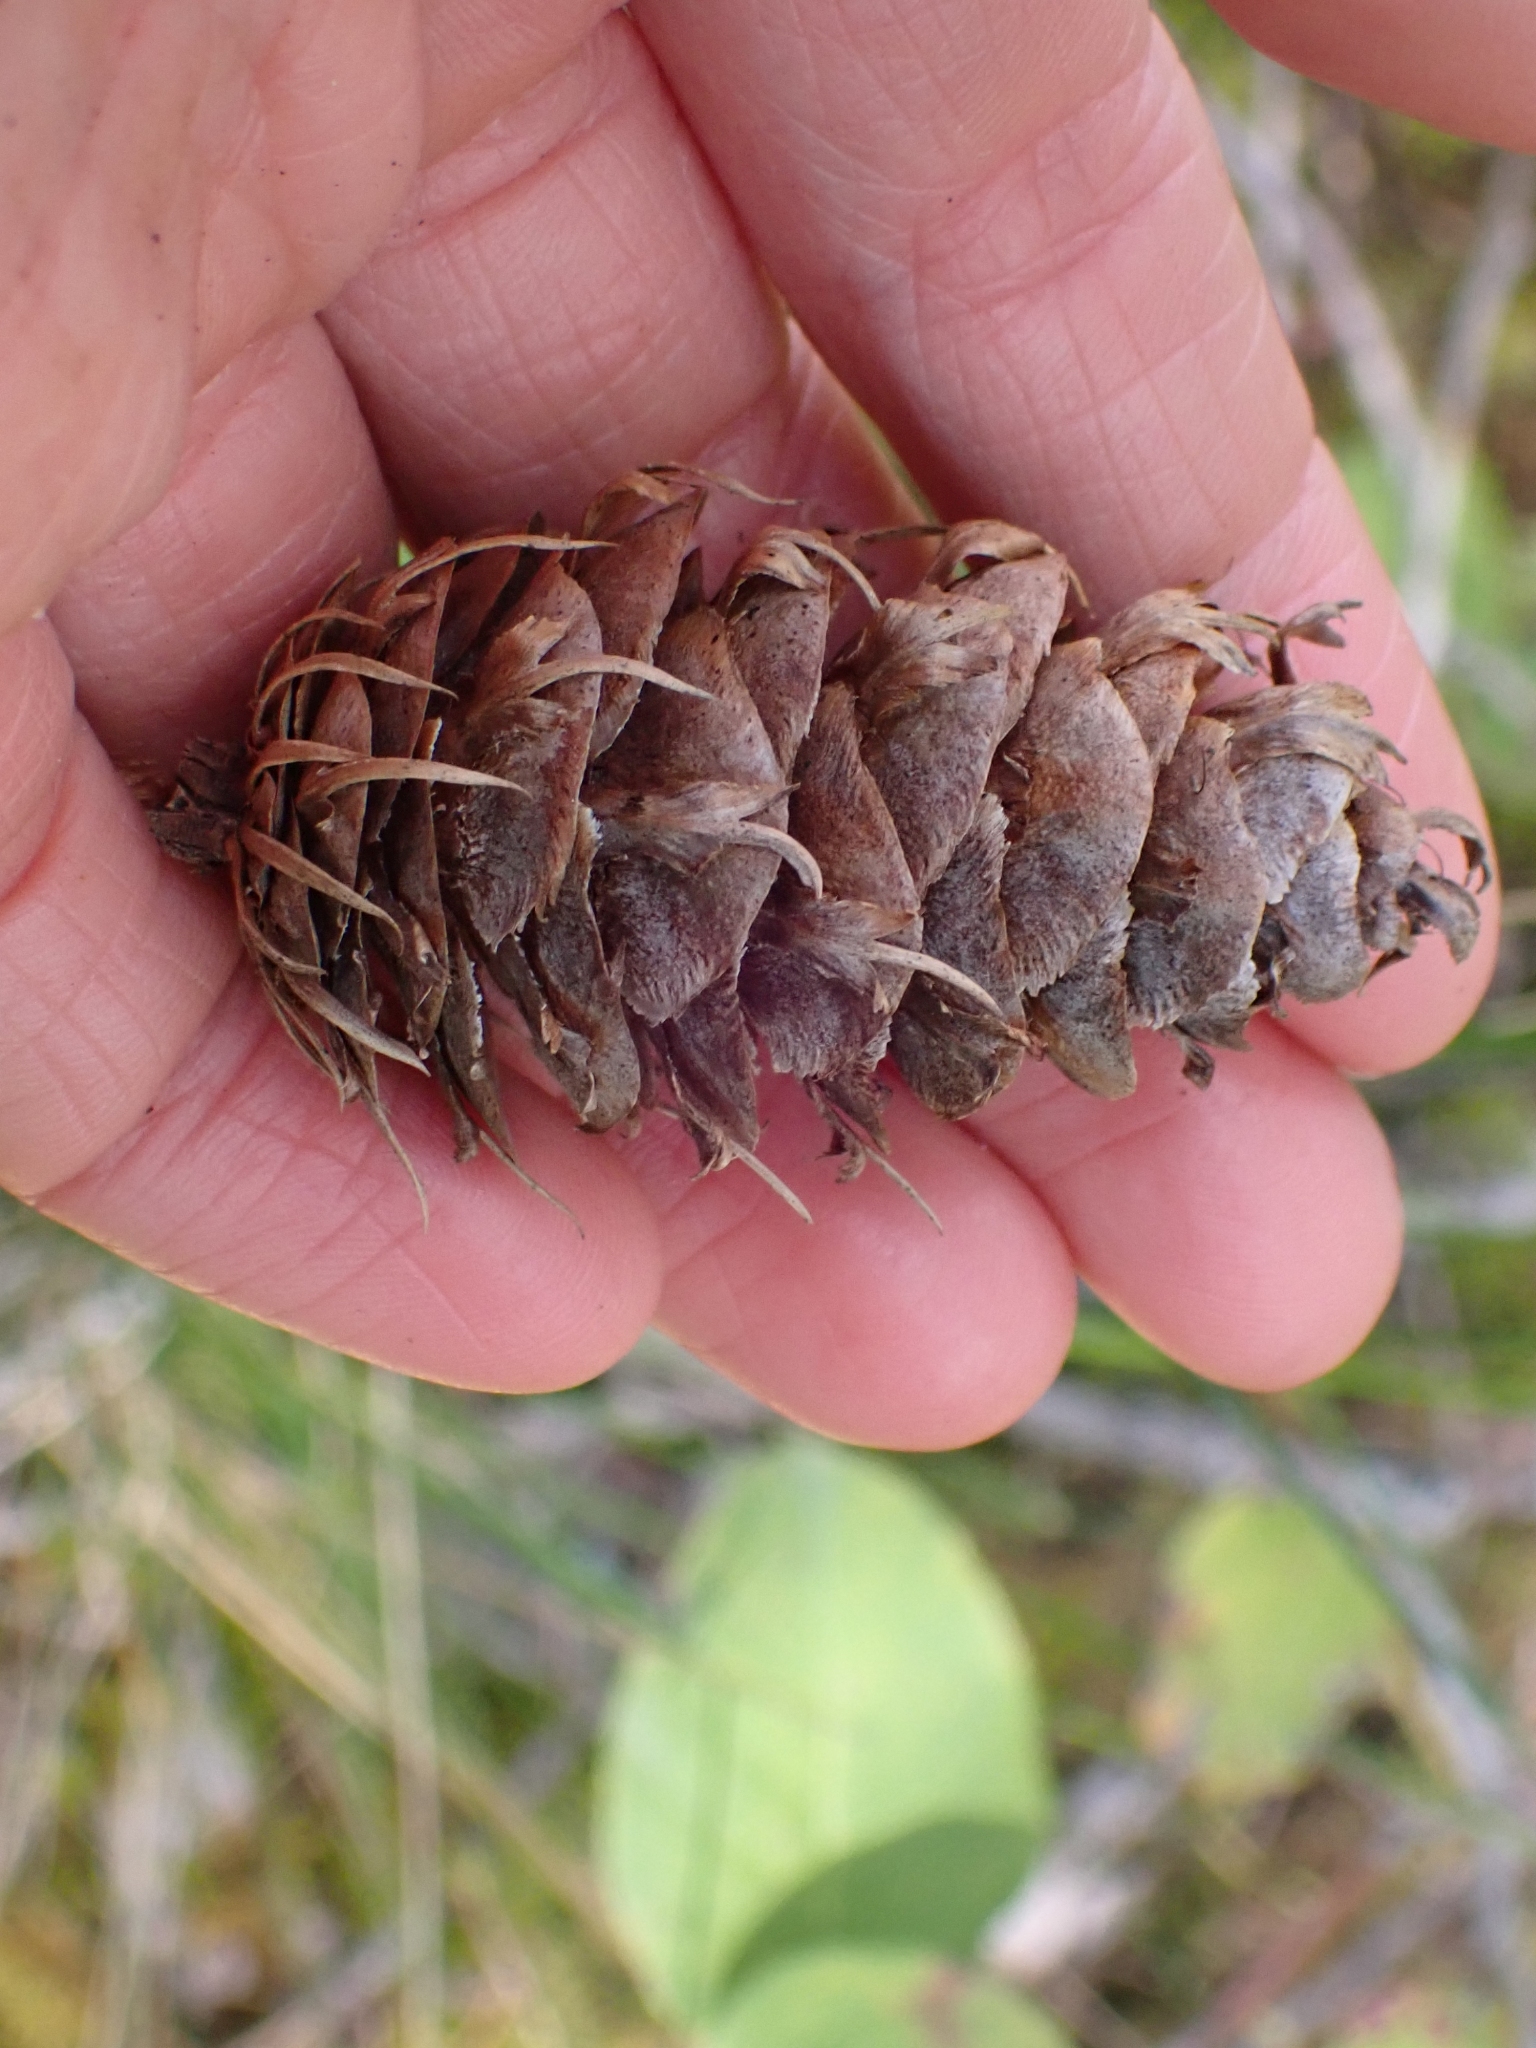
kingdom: Plantae
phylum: Tracheophyta
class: Pinopsida
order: Pinales
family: Pinaceae
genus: Pseudotsuga
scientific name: Pseudotsuga menziesii
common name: Douglas fir
